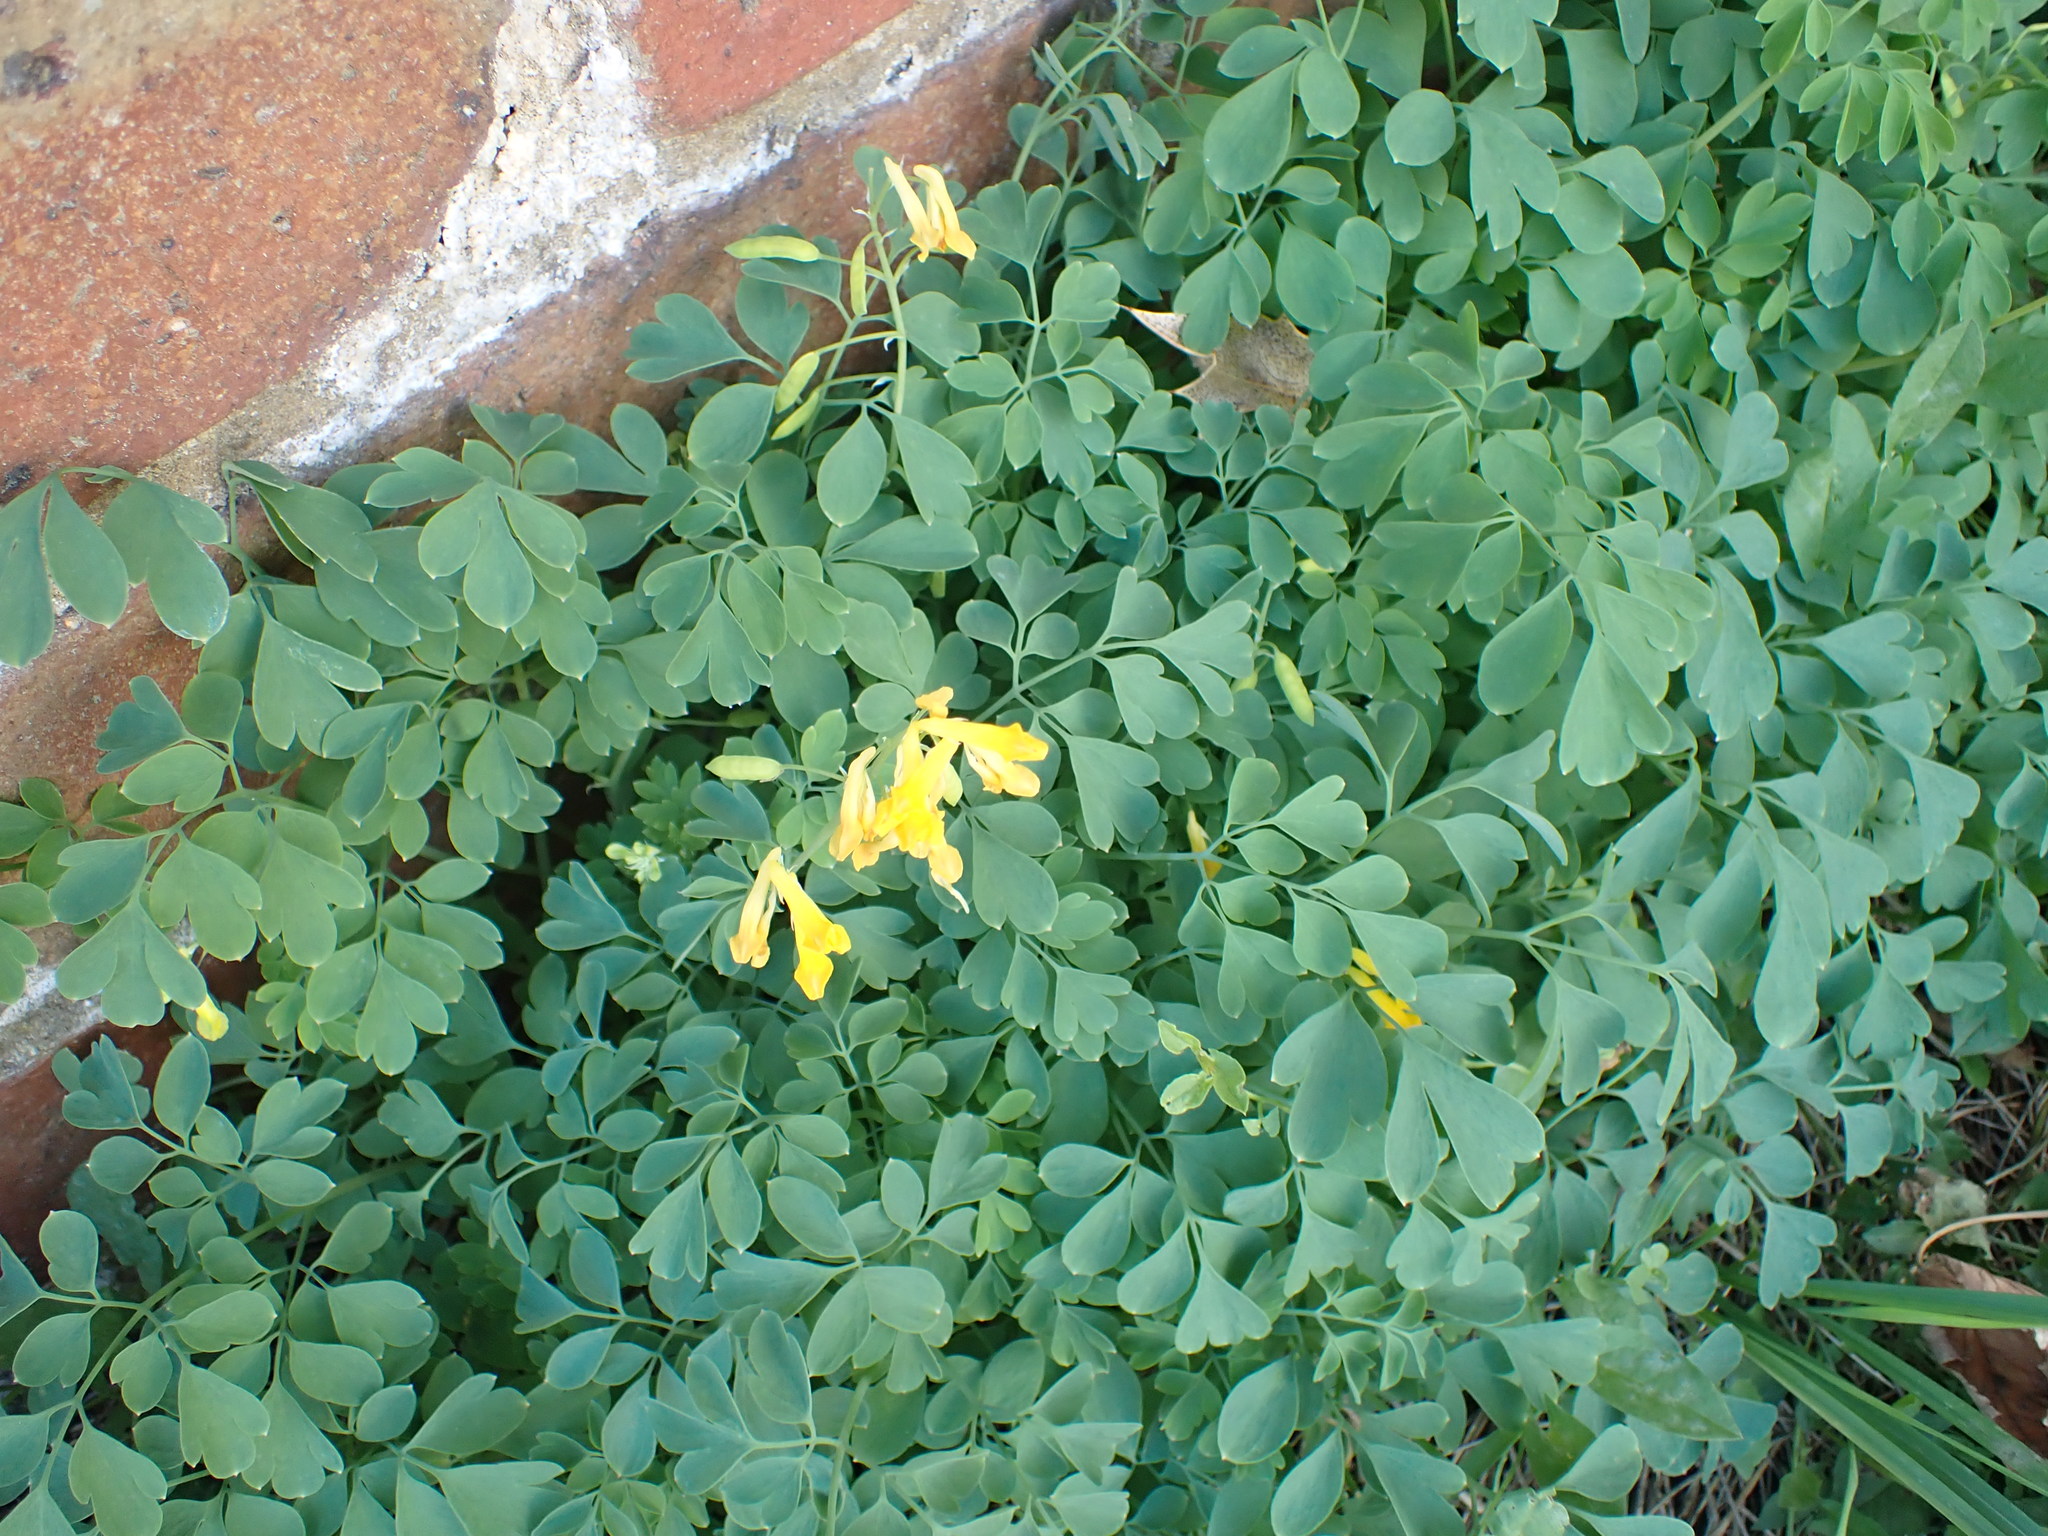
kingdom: Plantae
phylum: Tracheophyta
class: Magnoliopsida
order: Ranunculales
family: Papaveraceae
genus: Pseudofumaria
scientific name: Pseudofumaria lutea
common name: Yellow corydalis
